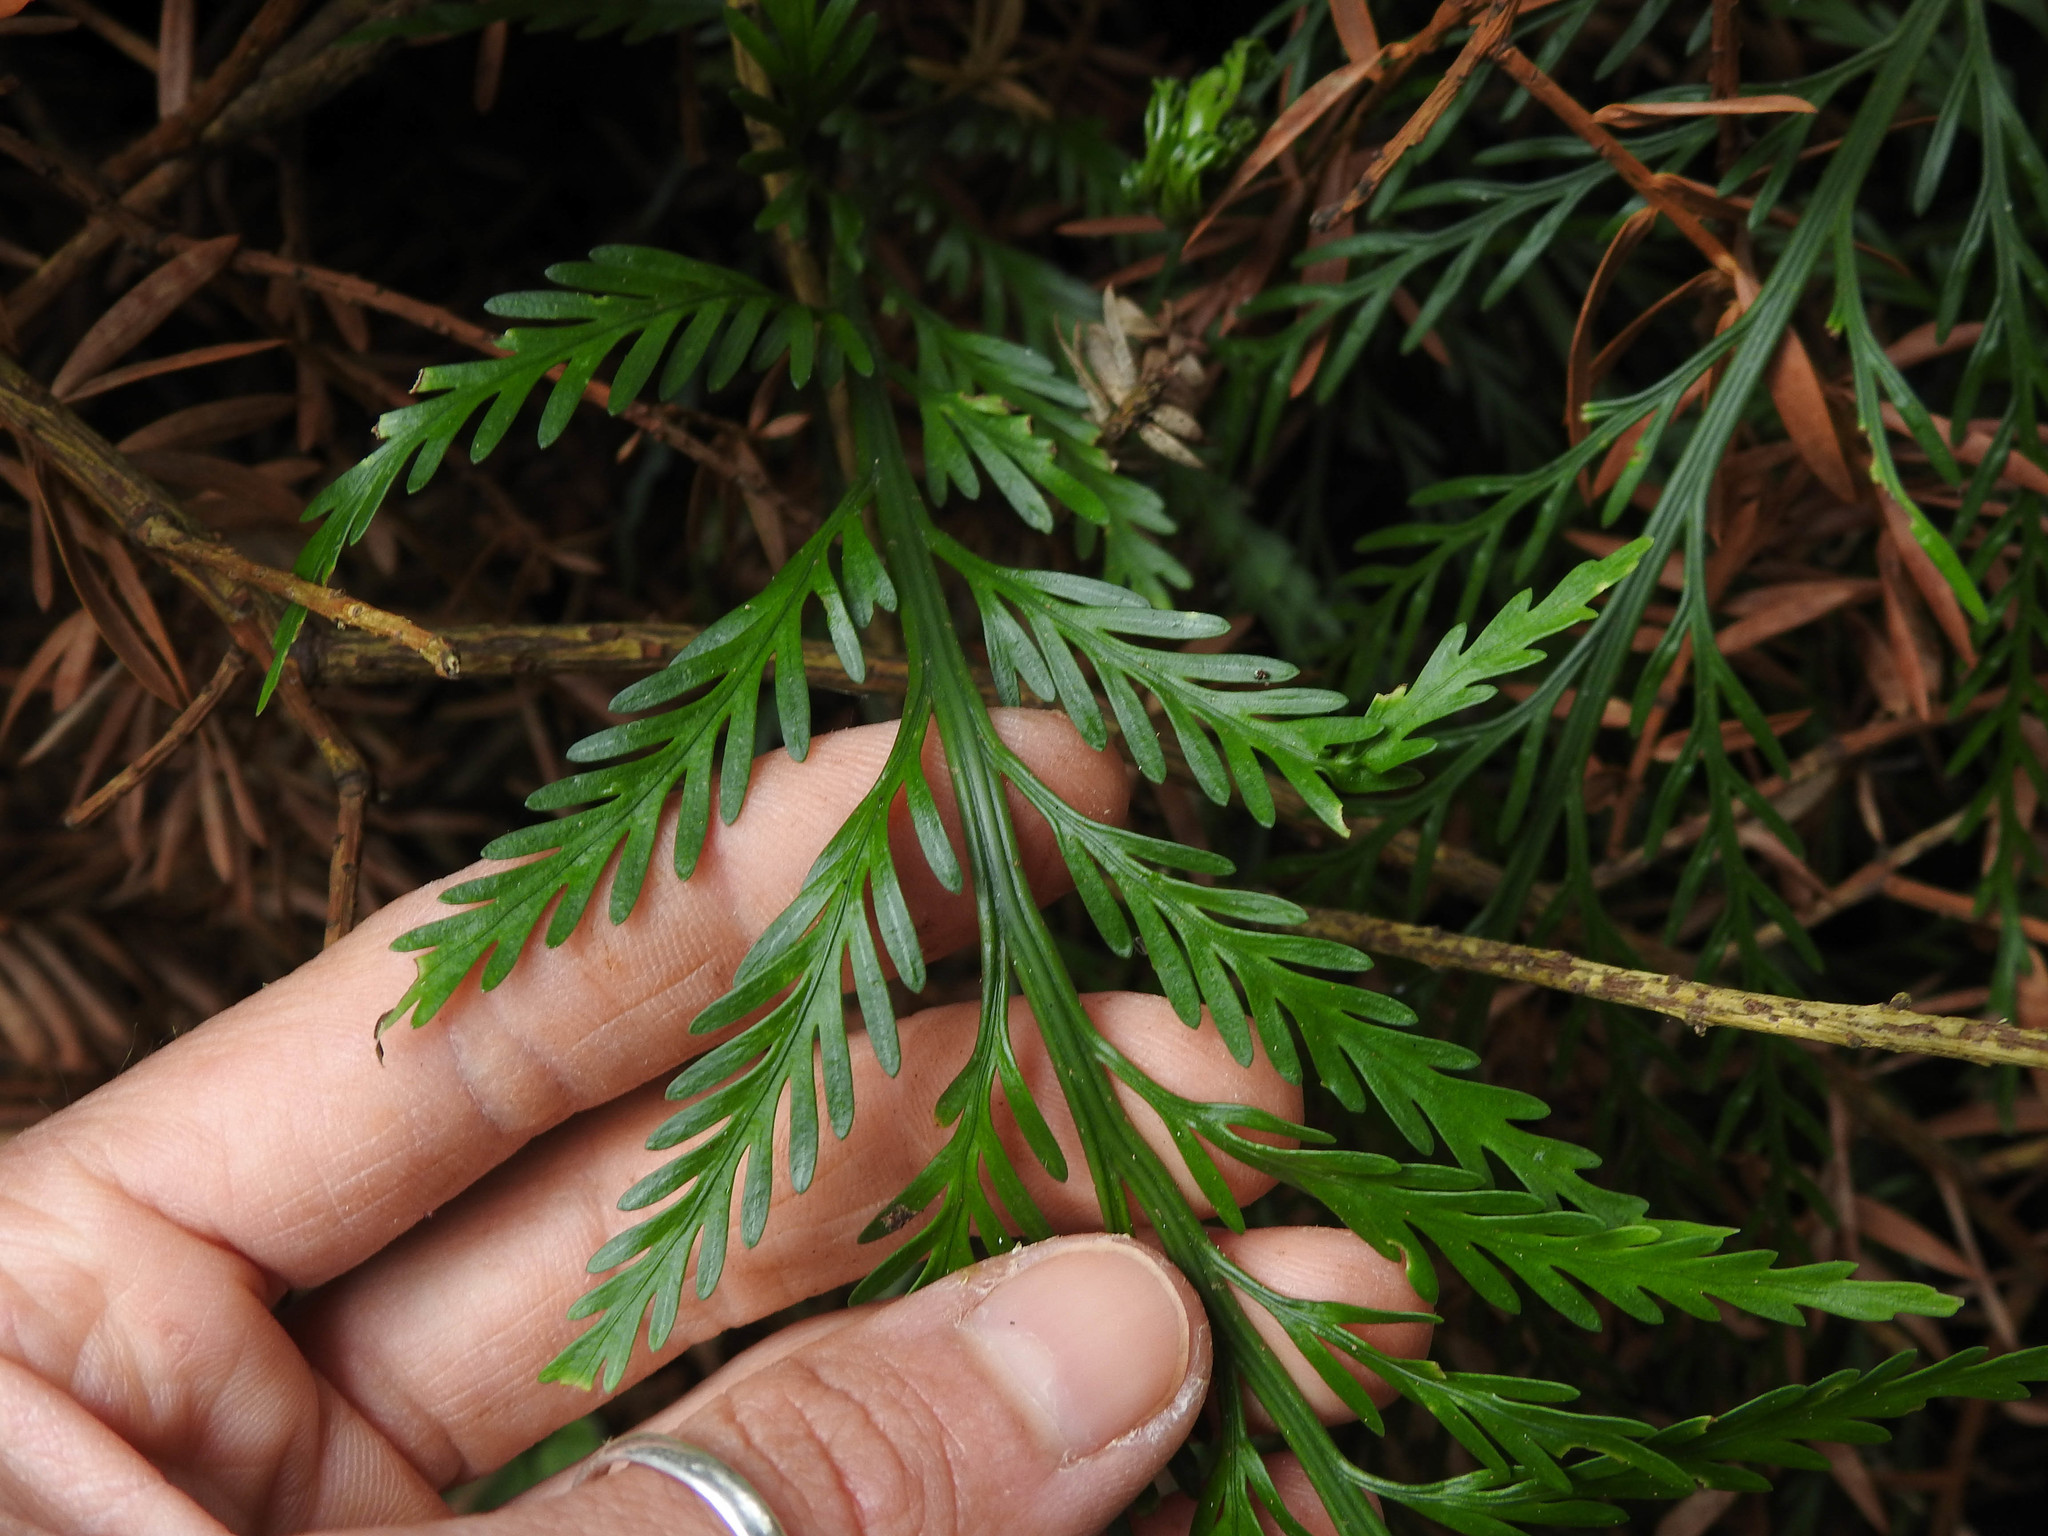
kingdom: Plantae
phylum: Tracheophyta
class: Polypodiopsida
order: Polypodiales
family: Aspleniaceae
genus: Asplenium
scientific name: Asplenium flaccidum
